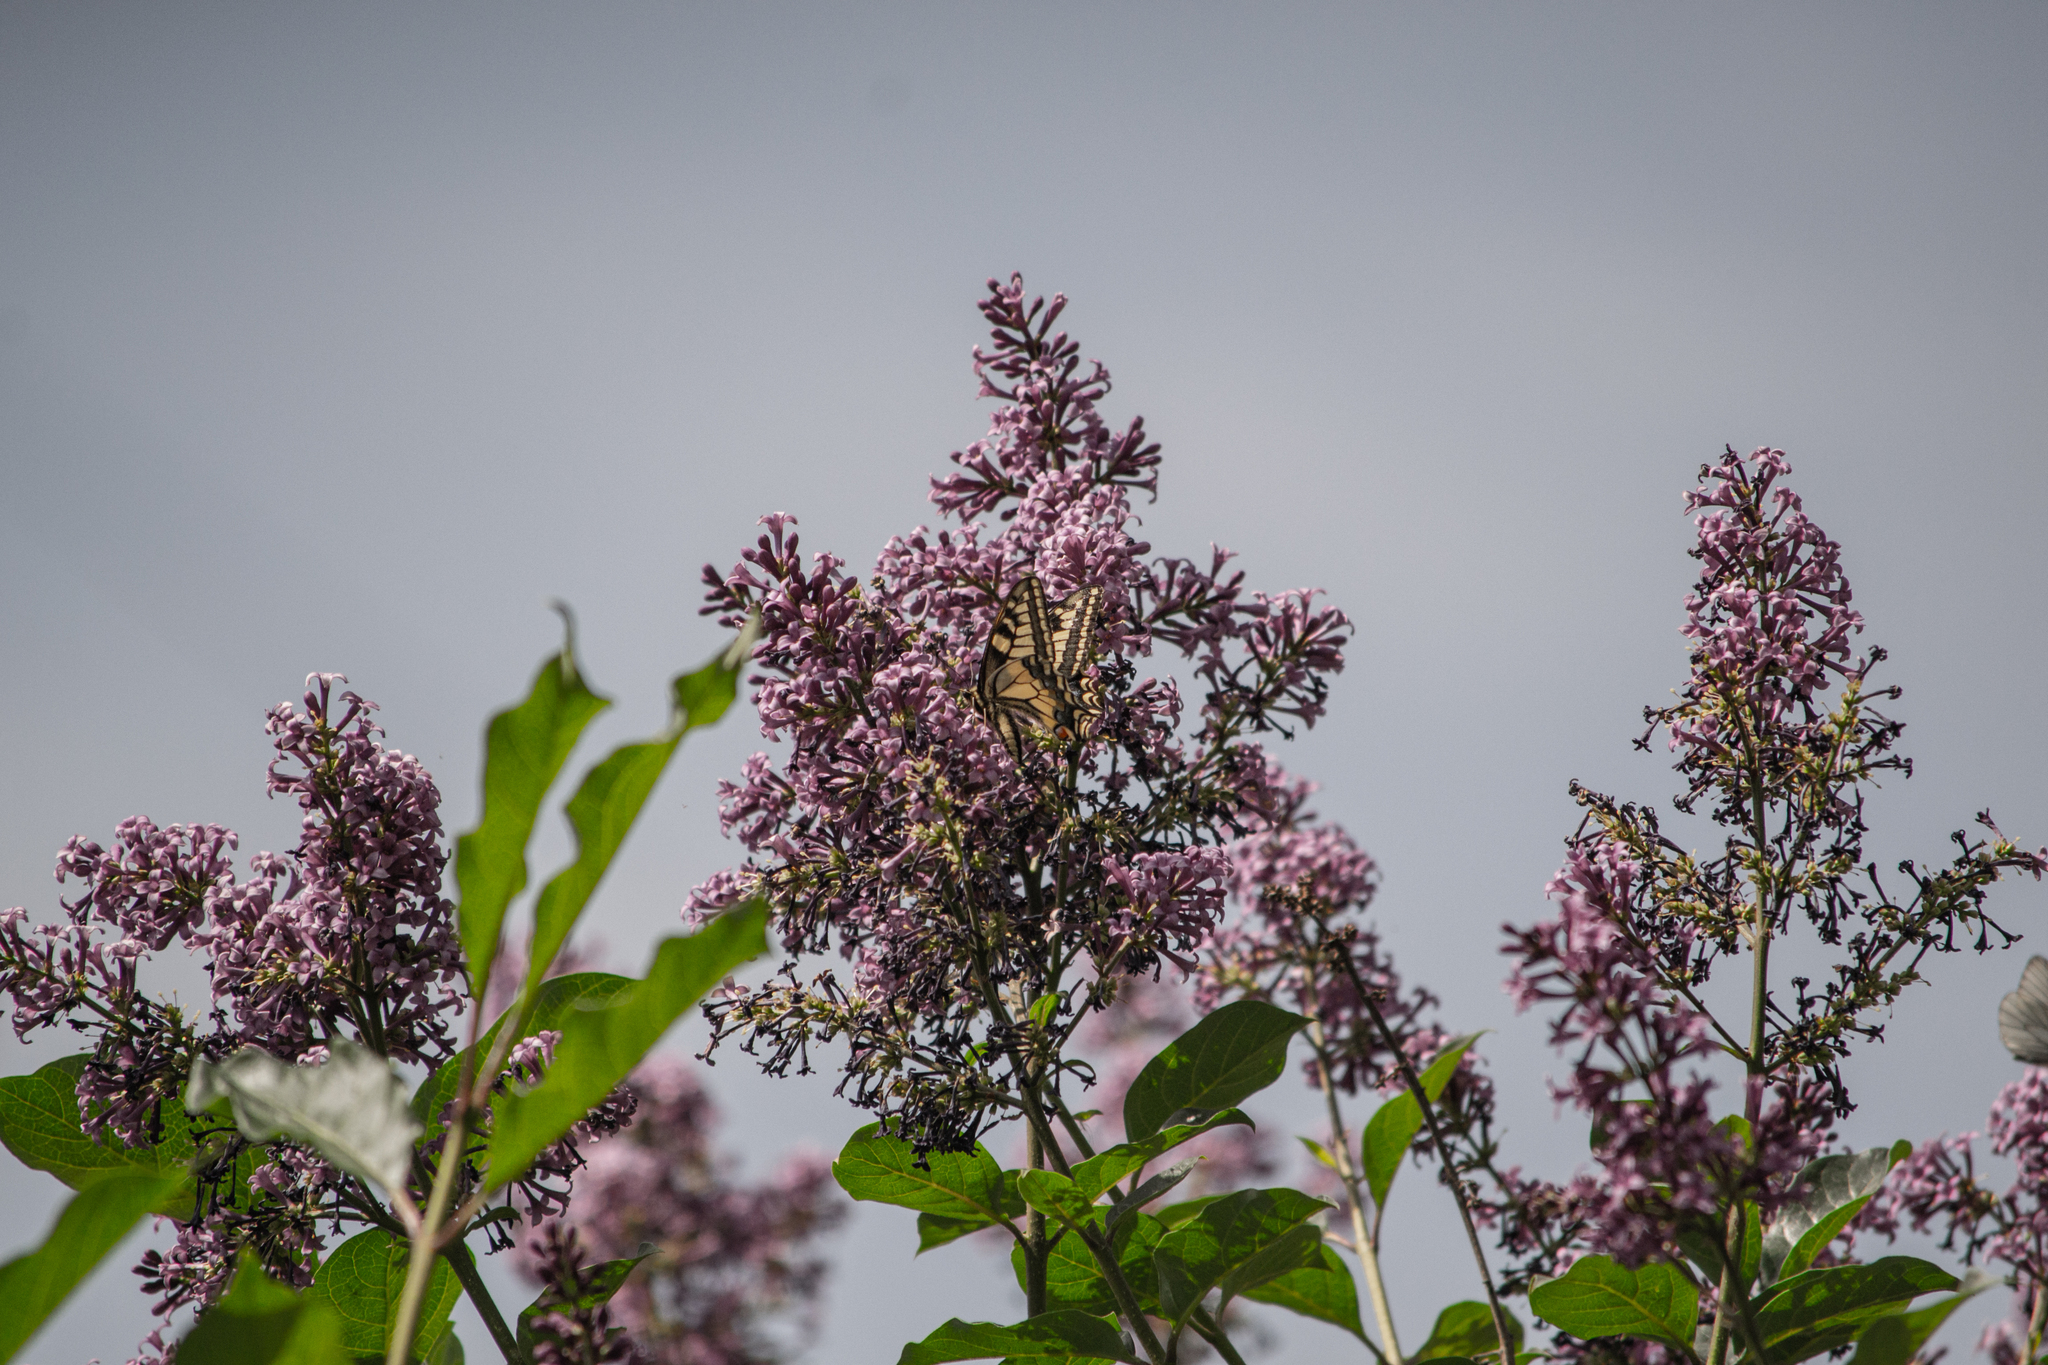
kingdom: Animalia
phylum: Arthropoda
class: Insecta
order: Lepidoptera
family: Papilionidae
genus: Papilio
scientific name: Papilio machaon
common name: Swallowtail
